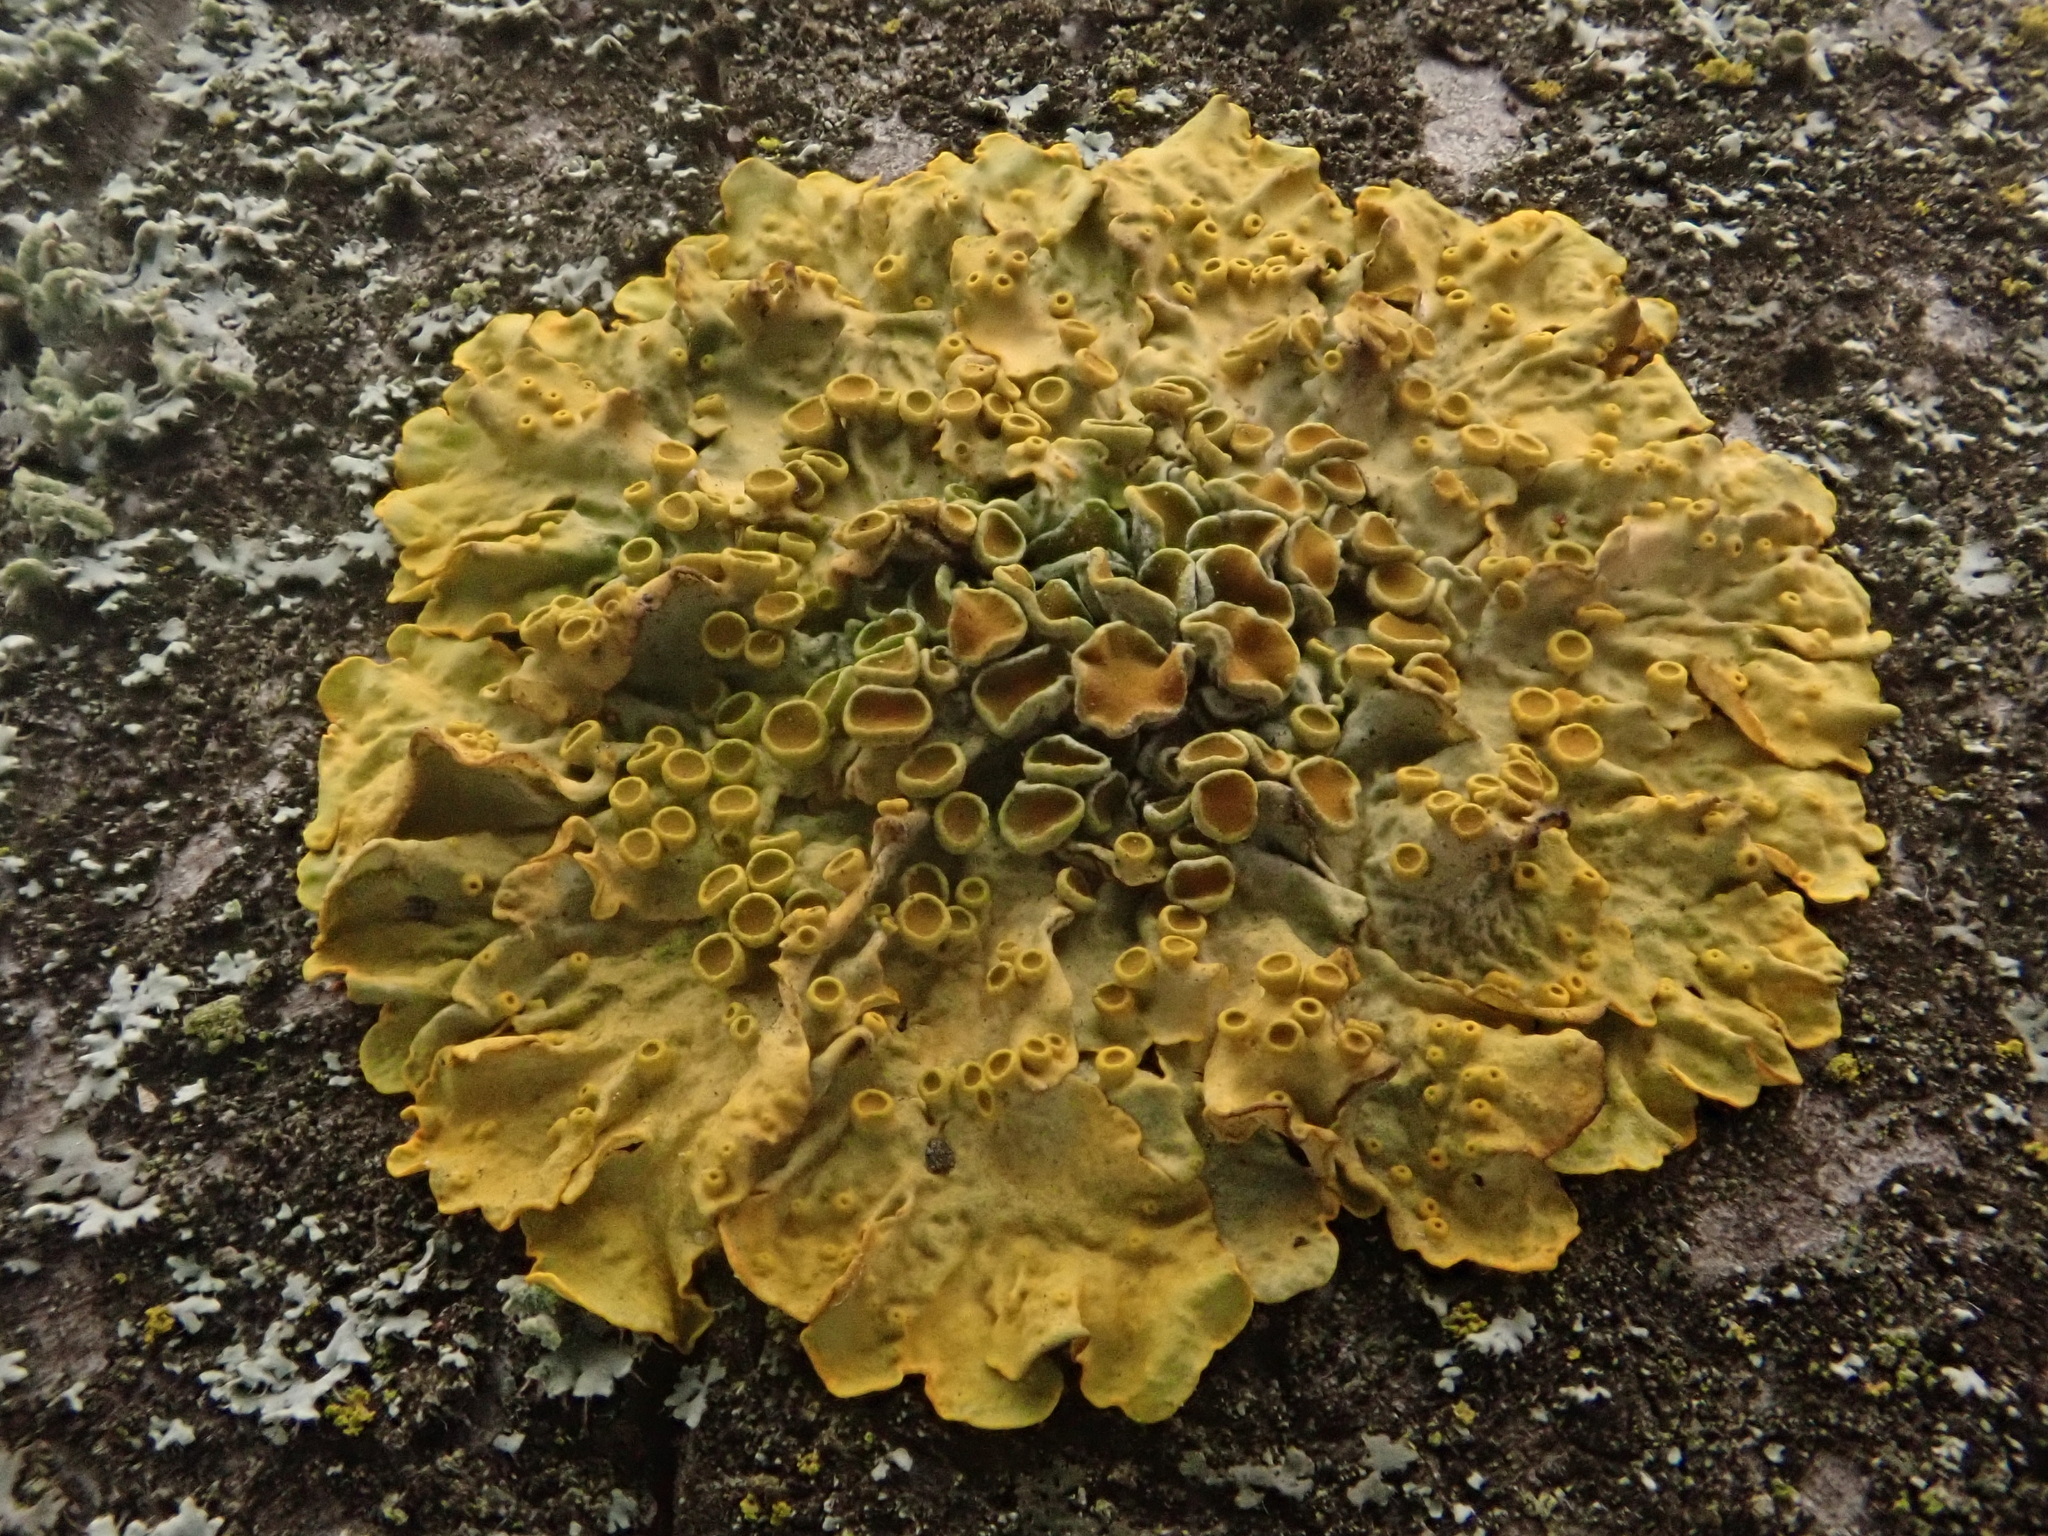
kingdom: Fungi
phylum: Ascomycota
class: Lecanoromycetes
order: Teloschistales
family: Teloschistaceae
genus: Xanthoria
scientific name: Xanthoria parietina
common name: Common orange lichen
